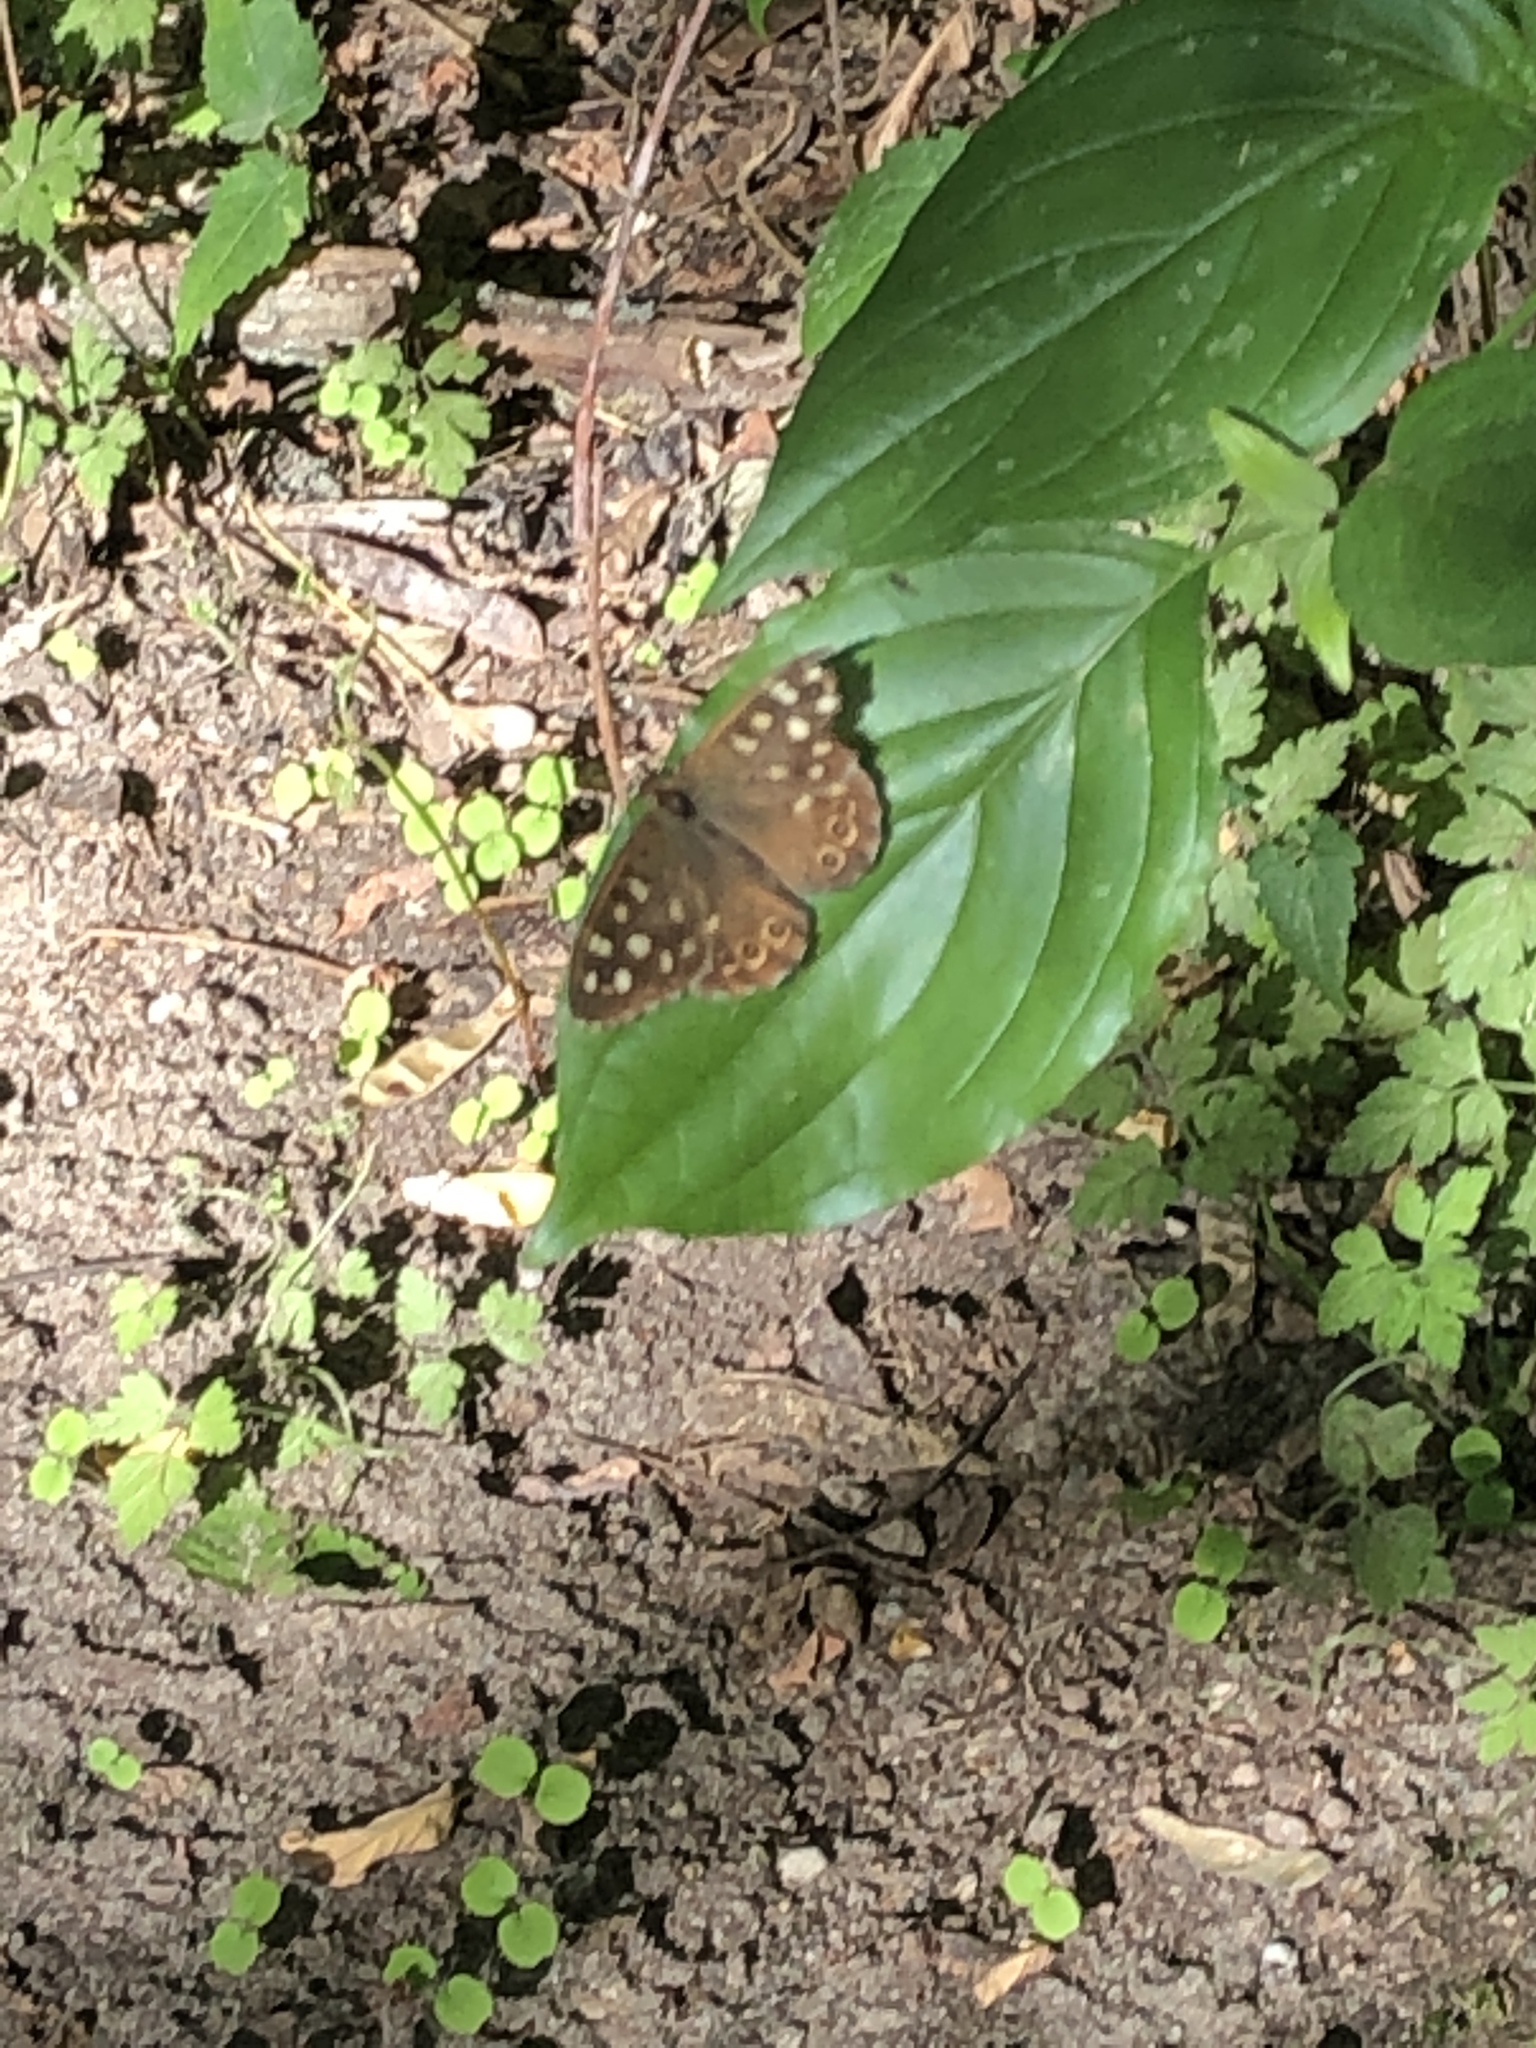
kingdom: Animalia
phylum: Arthropoda
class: Insecta
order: Lepidoptera
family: Nymphalidae
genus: Pararge
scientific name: Pararge aegeria
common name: Speckled wood
